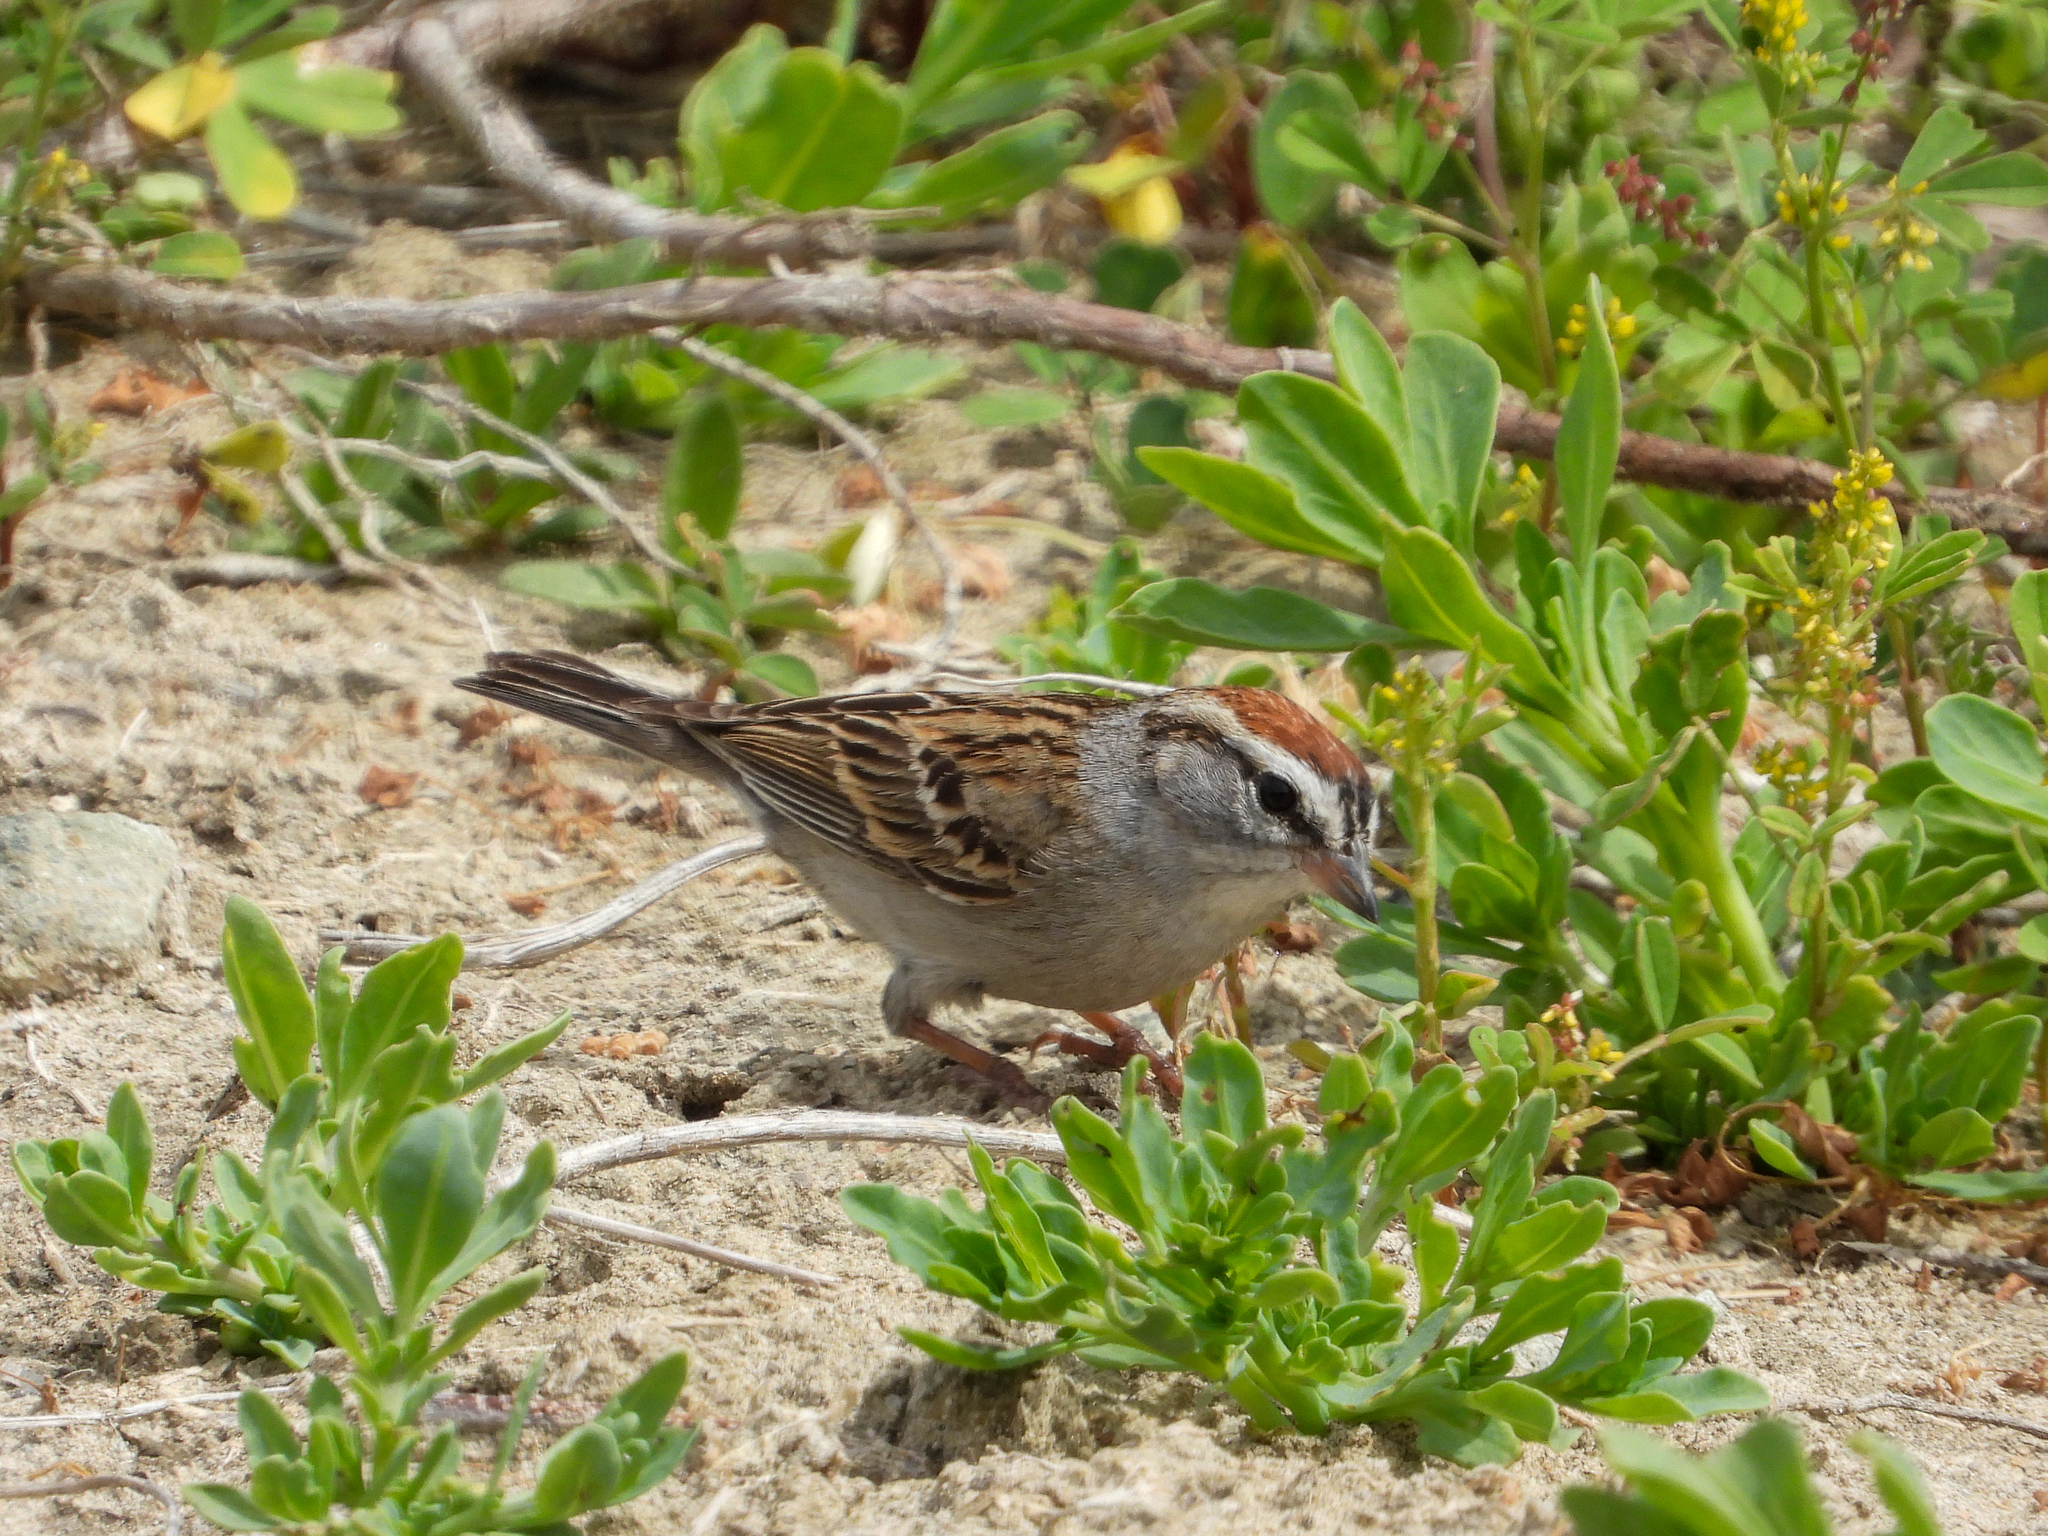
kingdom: Animalia
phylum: Chordata
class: Aves
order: Passeriformes
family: Passerellidae
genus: Spizella
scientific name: Spizella passerina
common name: Chipping sparrow
